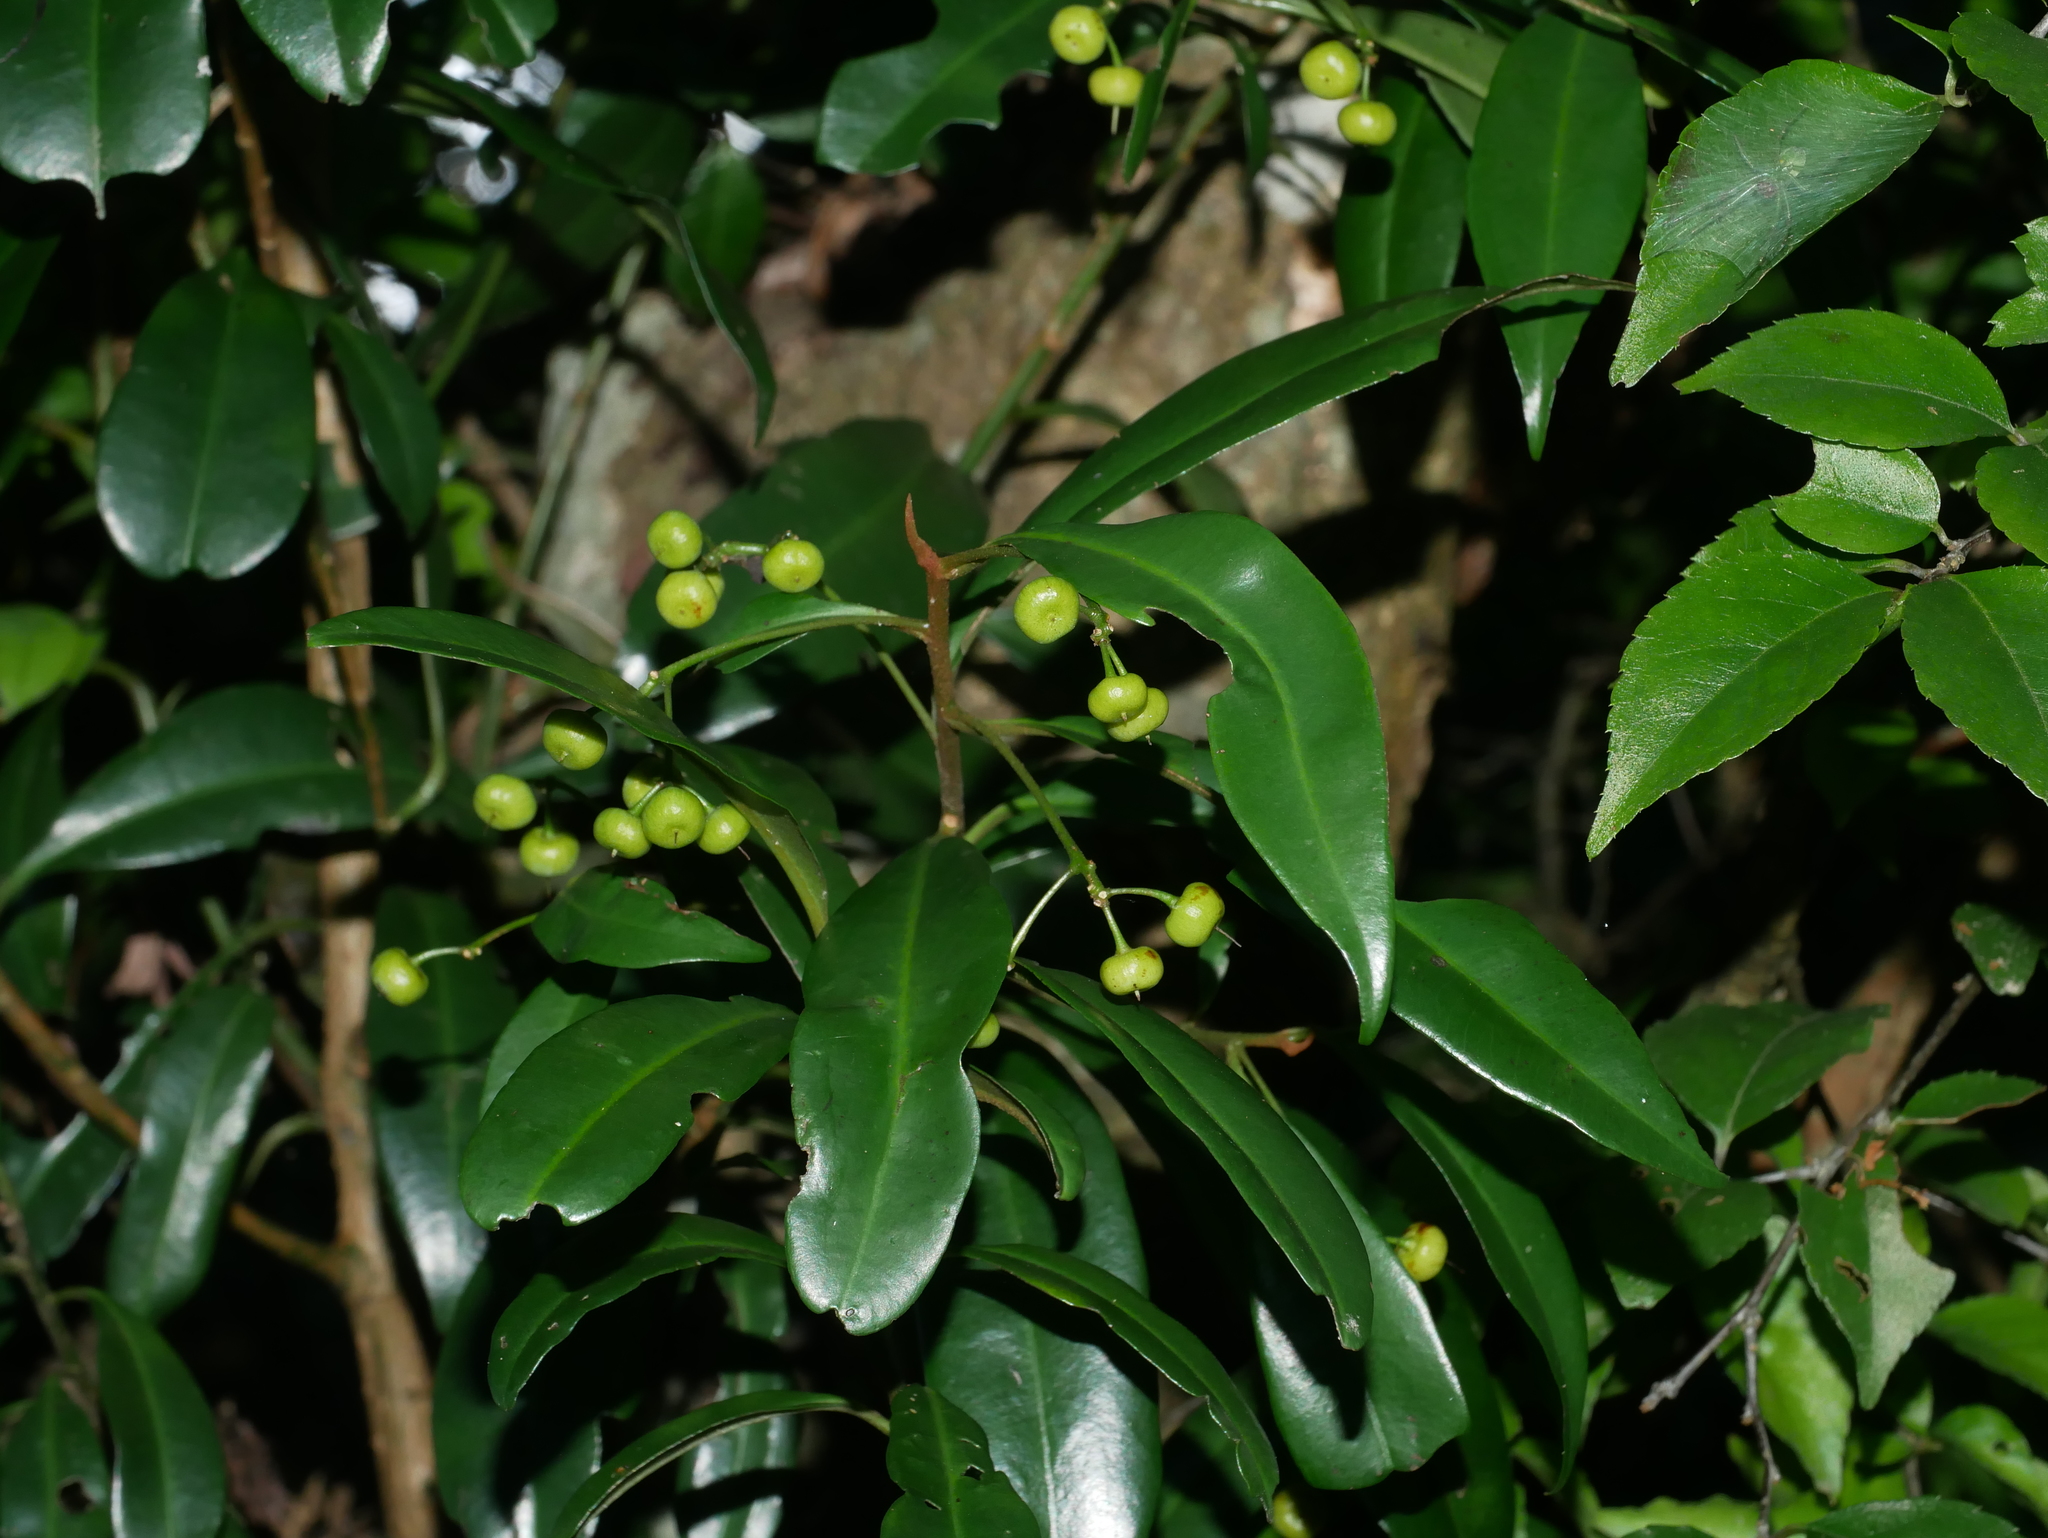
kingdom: Plantae
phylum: Tracheophyta
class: Magnoliopsida
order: Ericales
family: Primulaceae
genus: Ardisia
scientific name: Ardisia quinquegona
